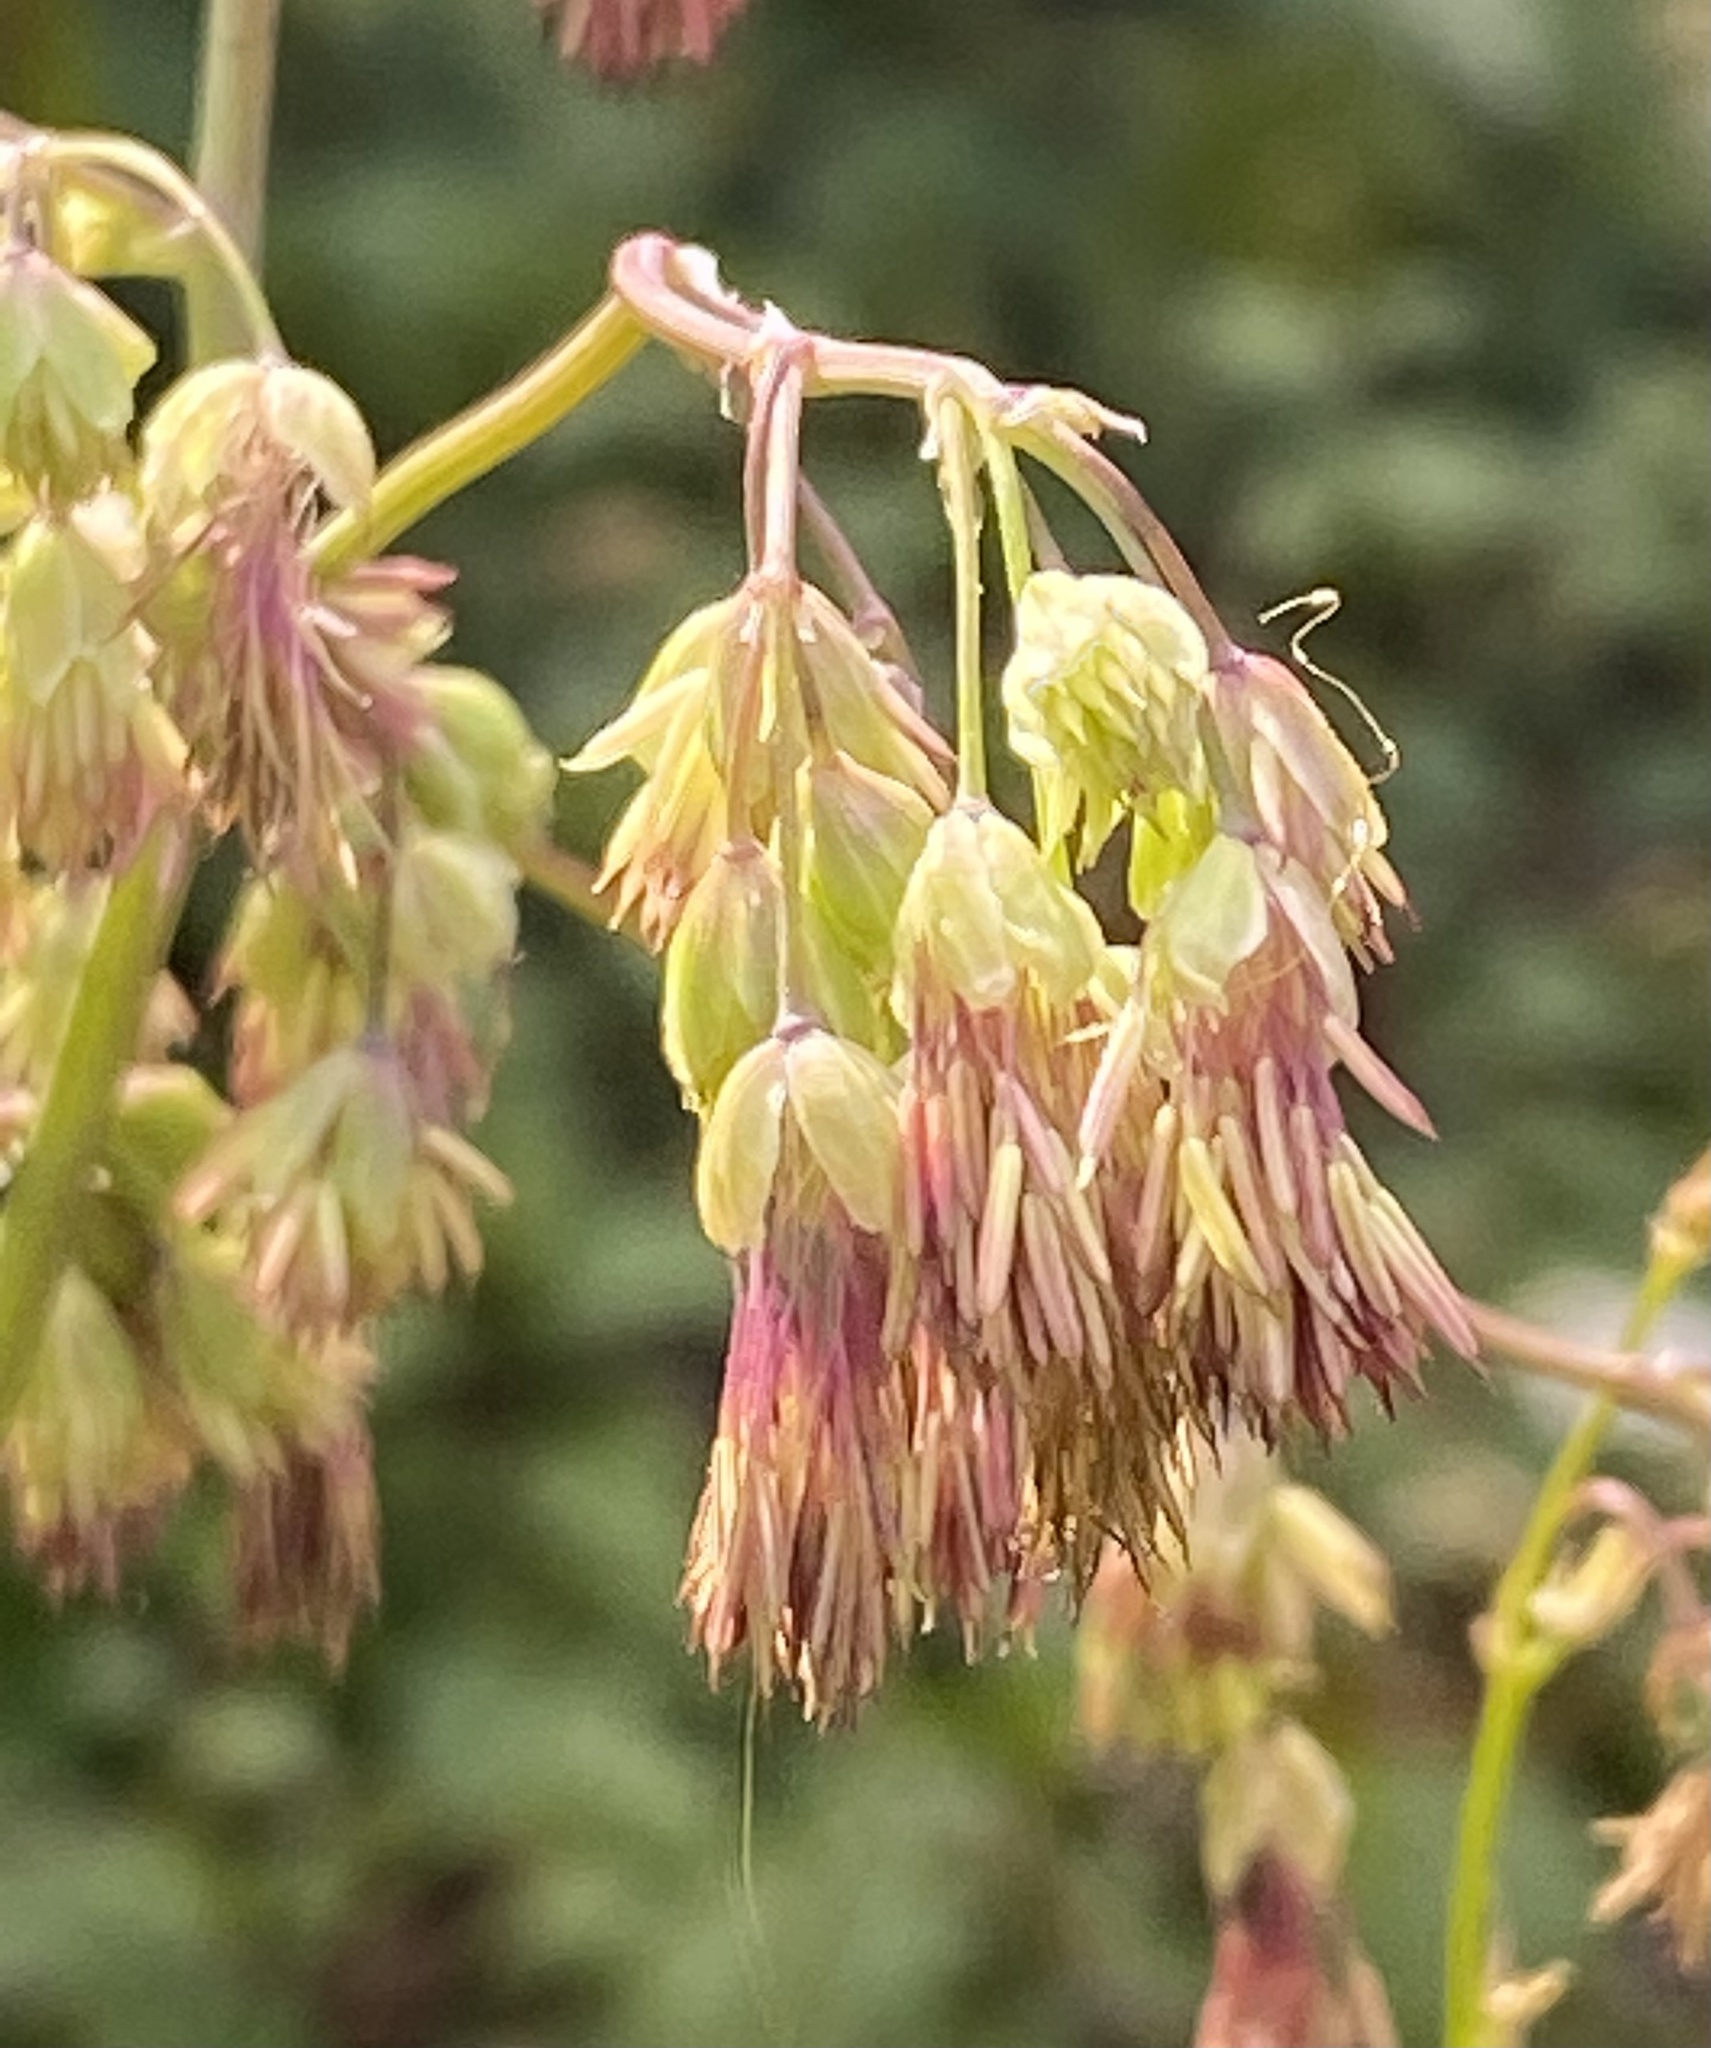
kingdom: Plantae
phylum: Tracheophyta
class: Magnoliopsida
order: Ranunculales
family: Ranunculaceae
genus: Thalictrum
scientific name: Thalictrum fendleri
